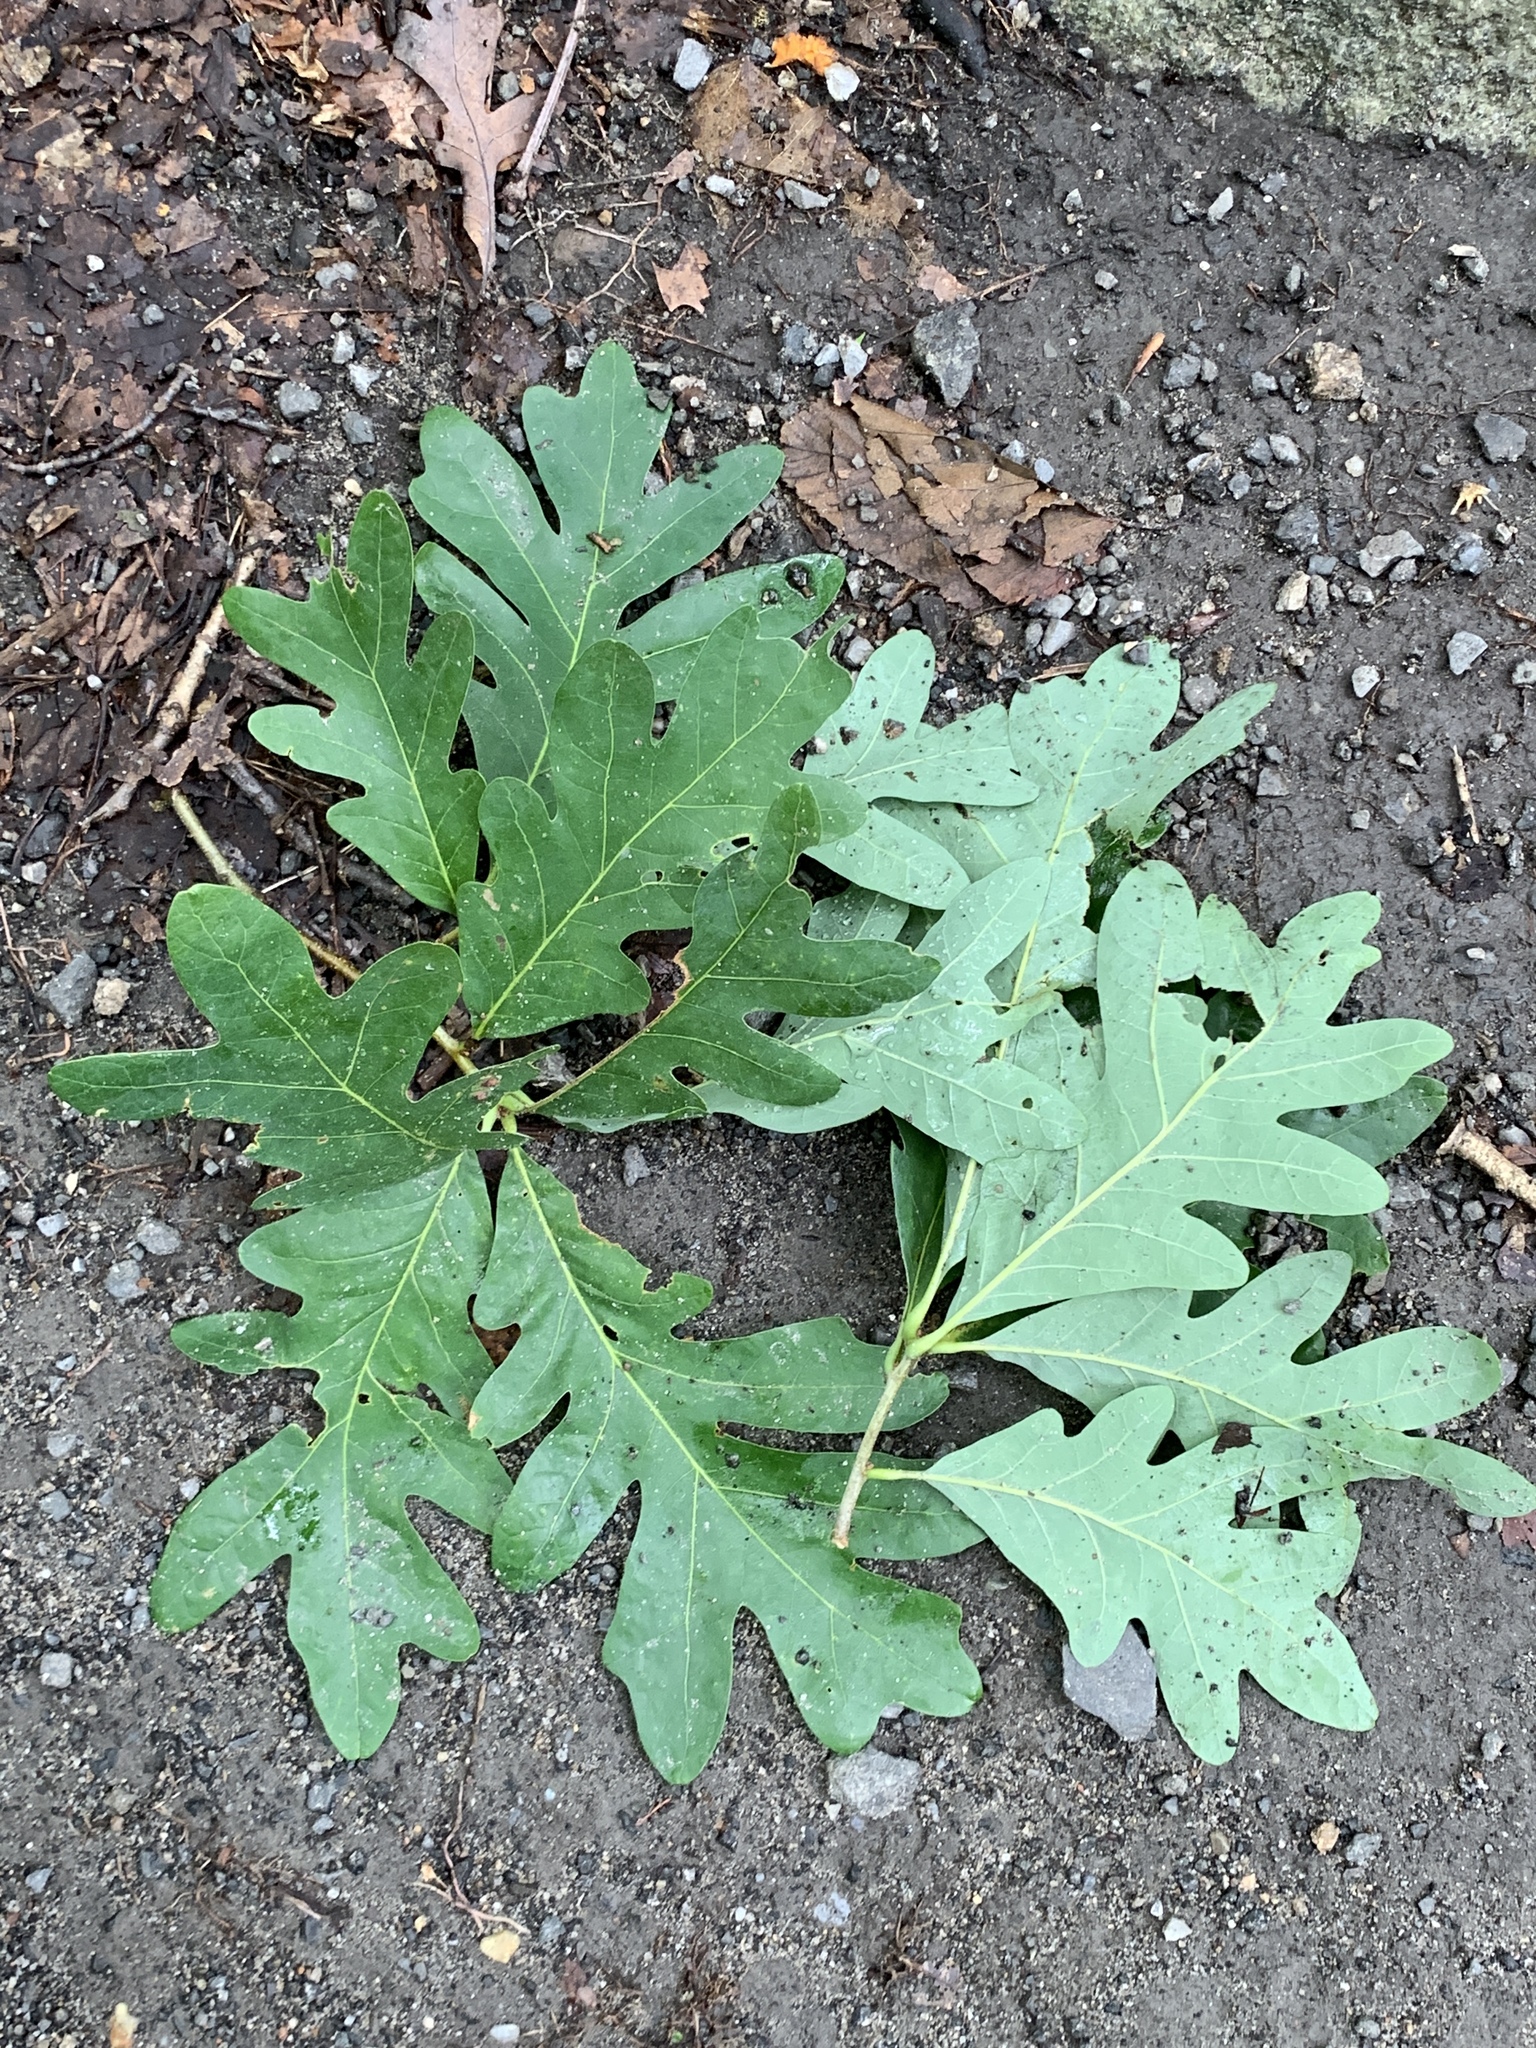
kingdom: Plantae
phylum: Tracheophyta
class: Magnoliopsida
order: Fagales
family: Fagaceae
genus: Quercus
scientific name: Quercus alba
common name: White oak
